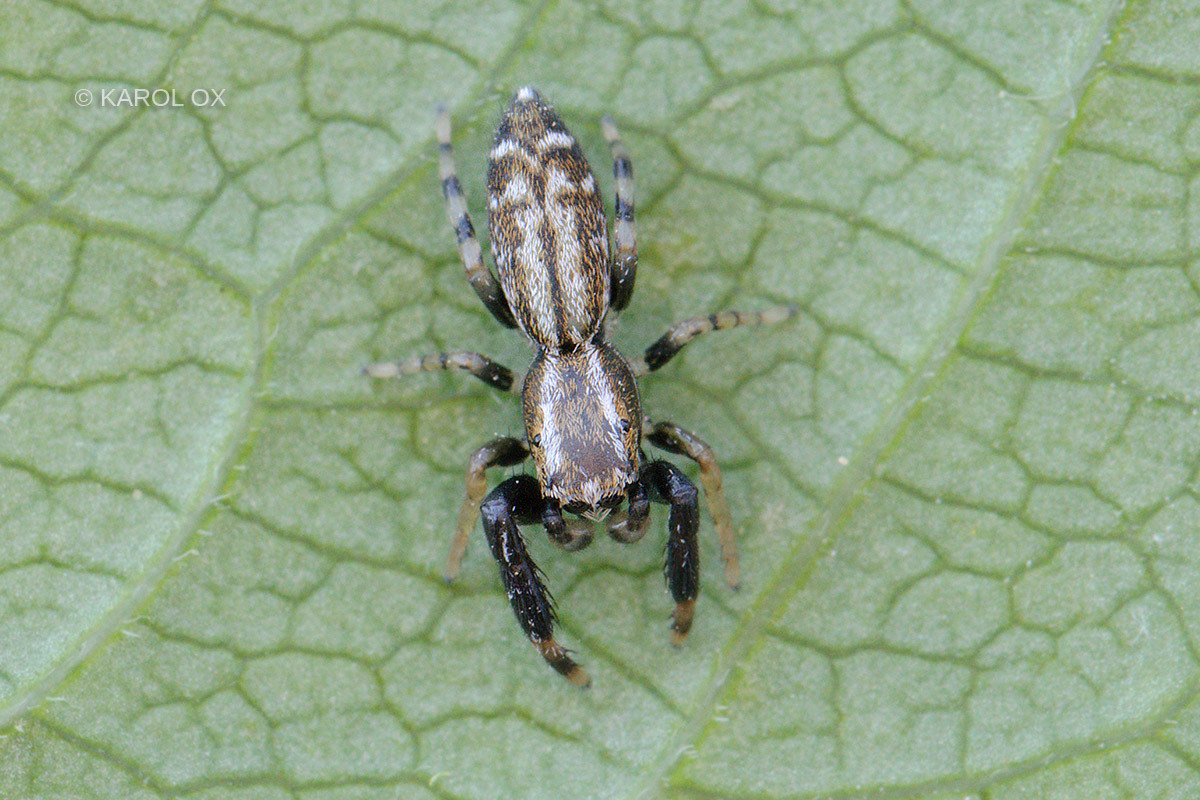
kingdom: Animalia
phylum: Arthropoda
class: Arachnida
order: Araneae
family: Salticidae
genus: Marpissa
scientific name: Marpissa nivoyi
